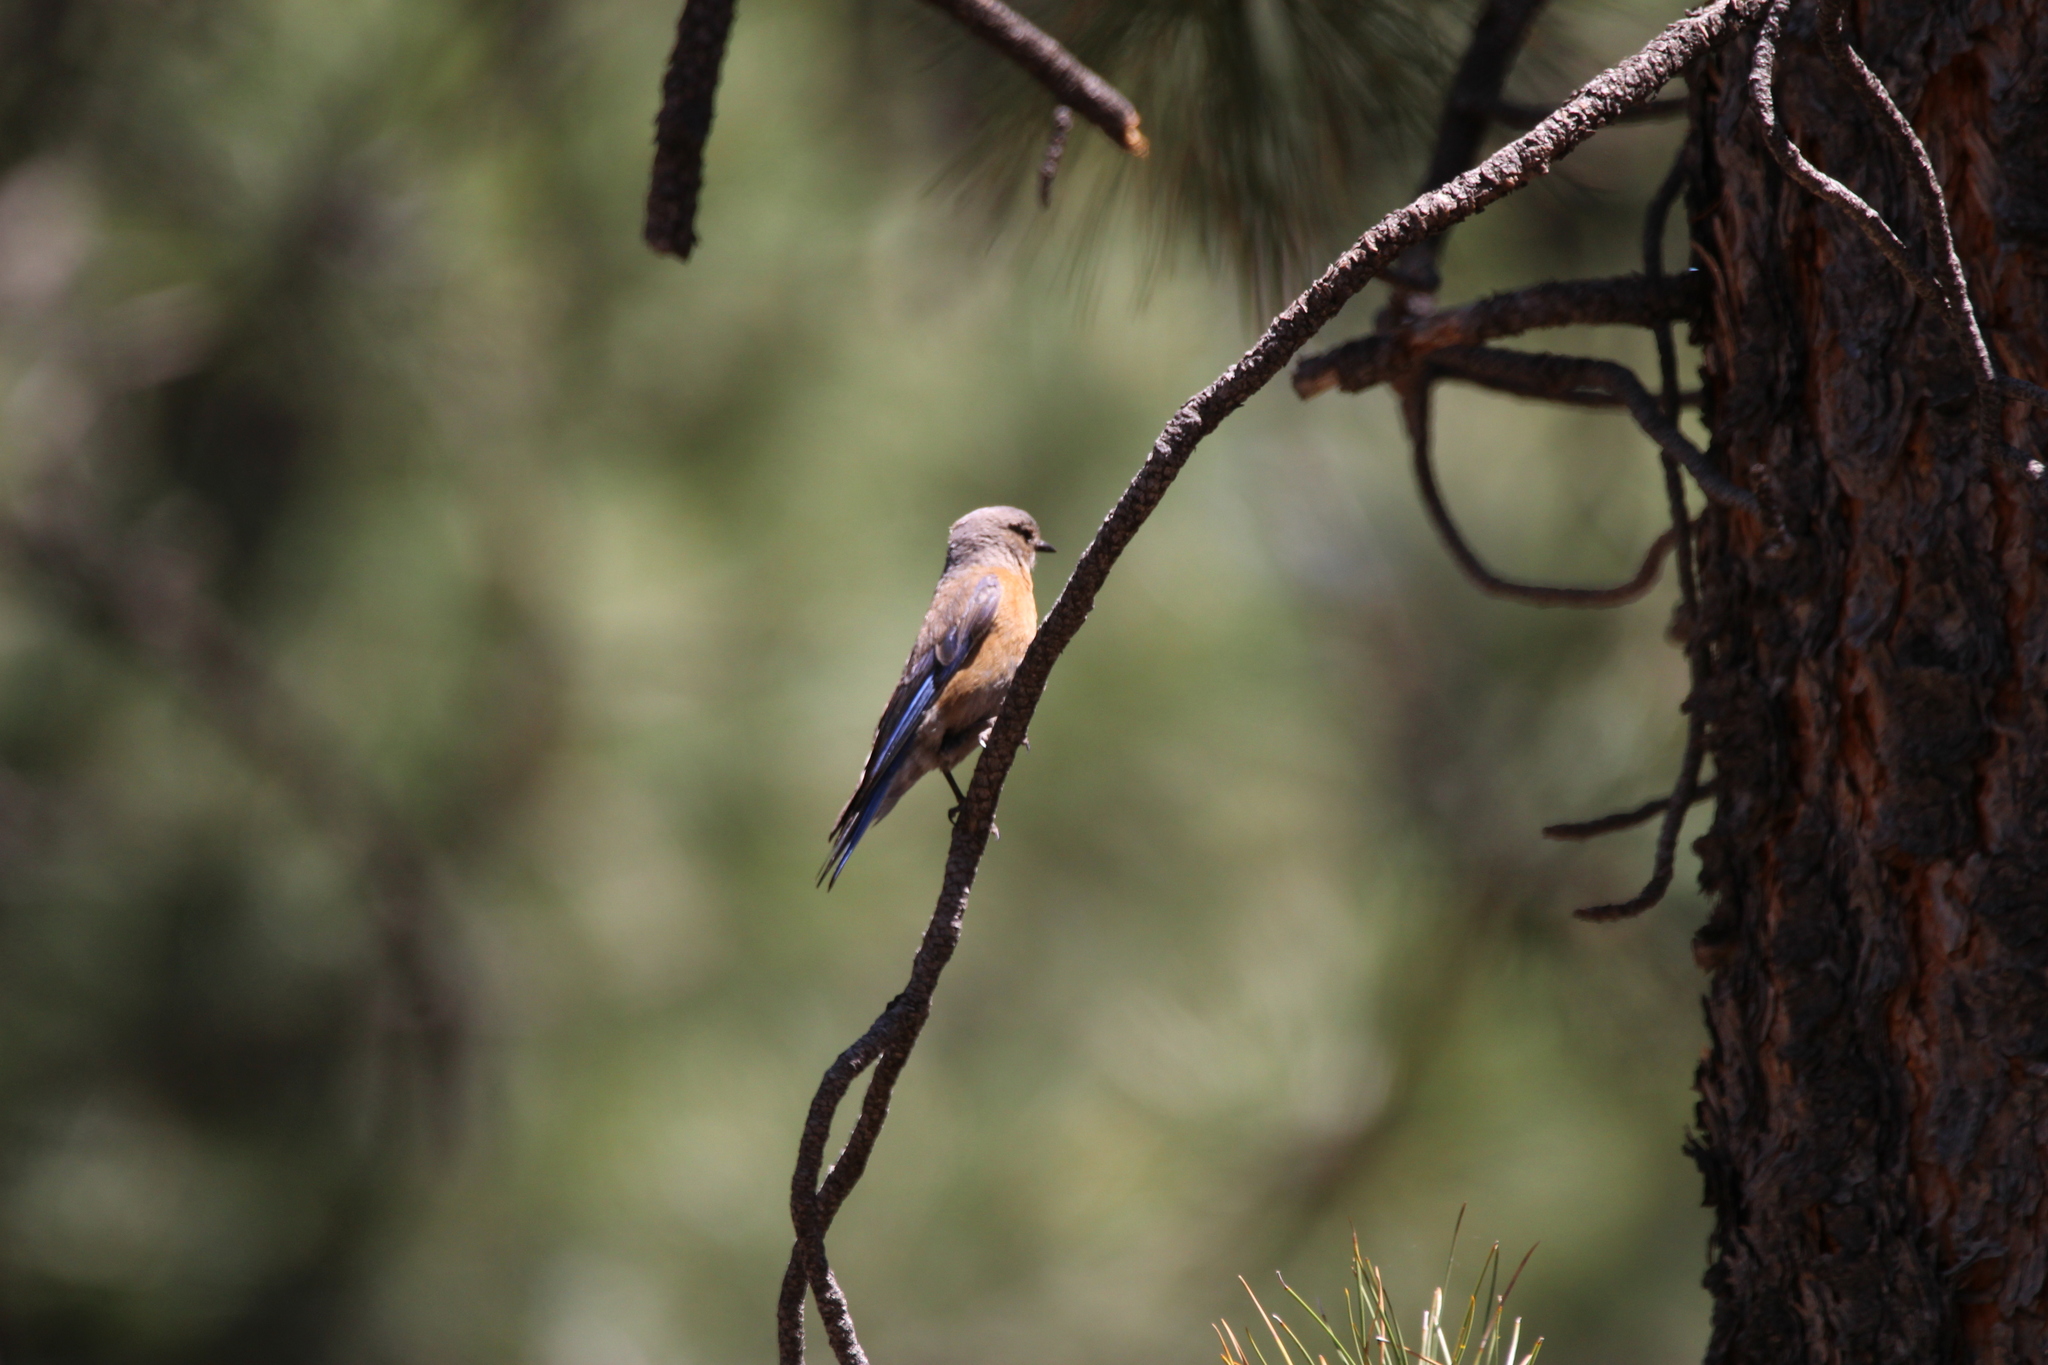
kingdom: Animalia
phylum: Chordata
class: Aves
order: Passeriformes
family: Turdidae
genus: Sialia
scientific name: Sialia mexicana
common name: Western bluebird
